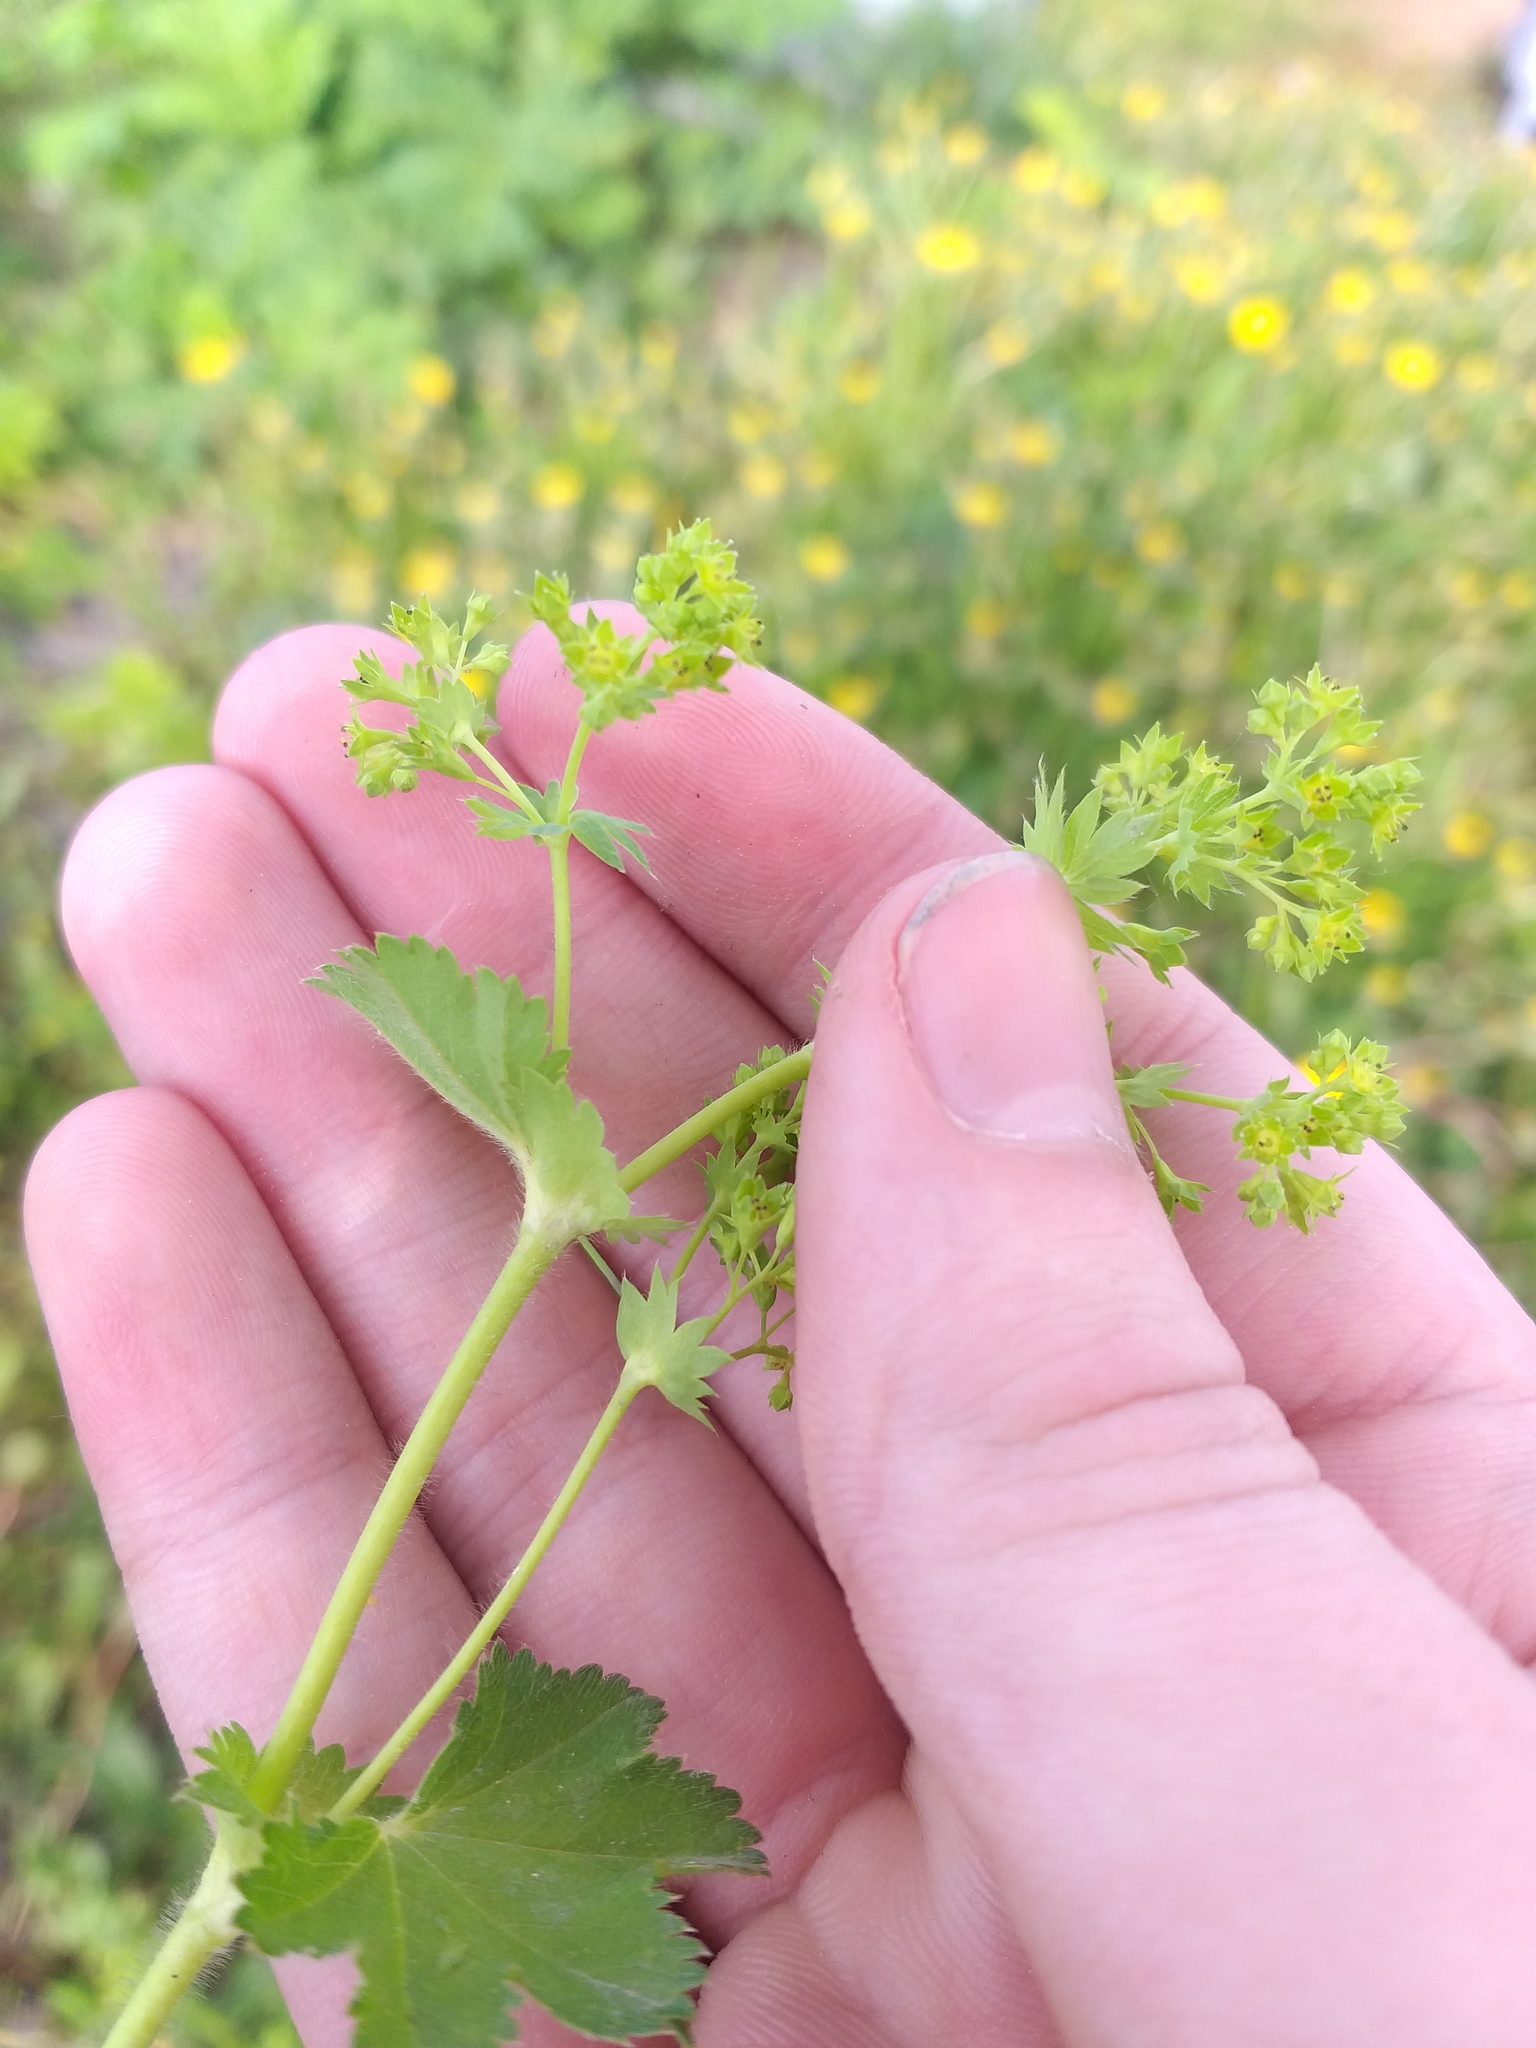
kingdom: Plantae
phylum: Tracheophyta
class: Magnoliopsida
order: Rosales
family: Rosaceae
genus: Alchemilla
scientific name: Alchemilla micans
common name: Gleaming lady's mantle
